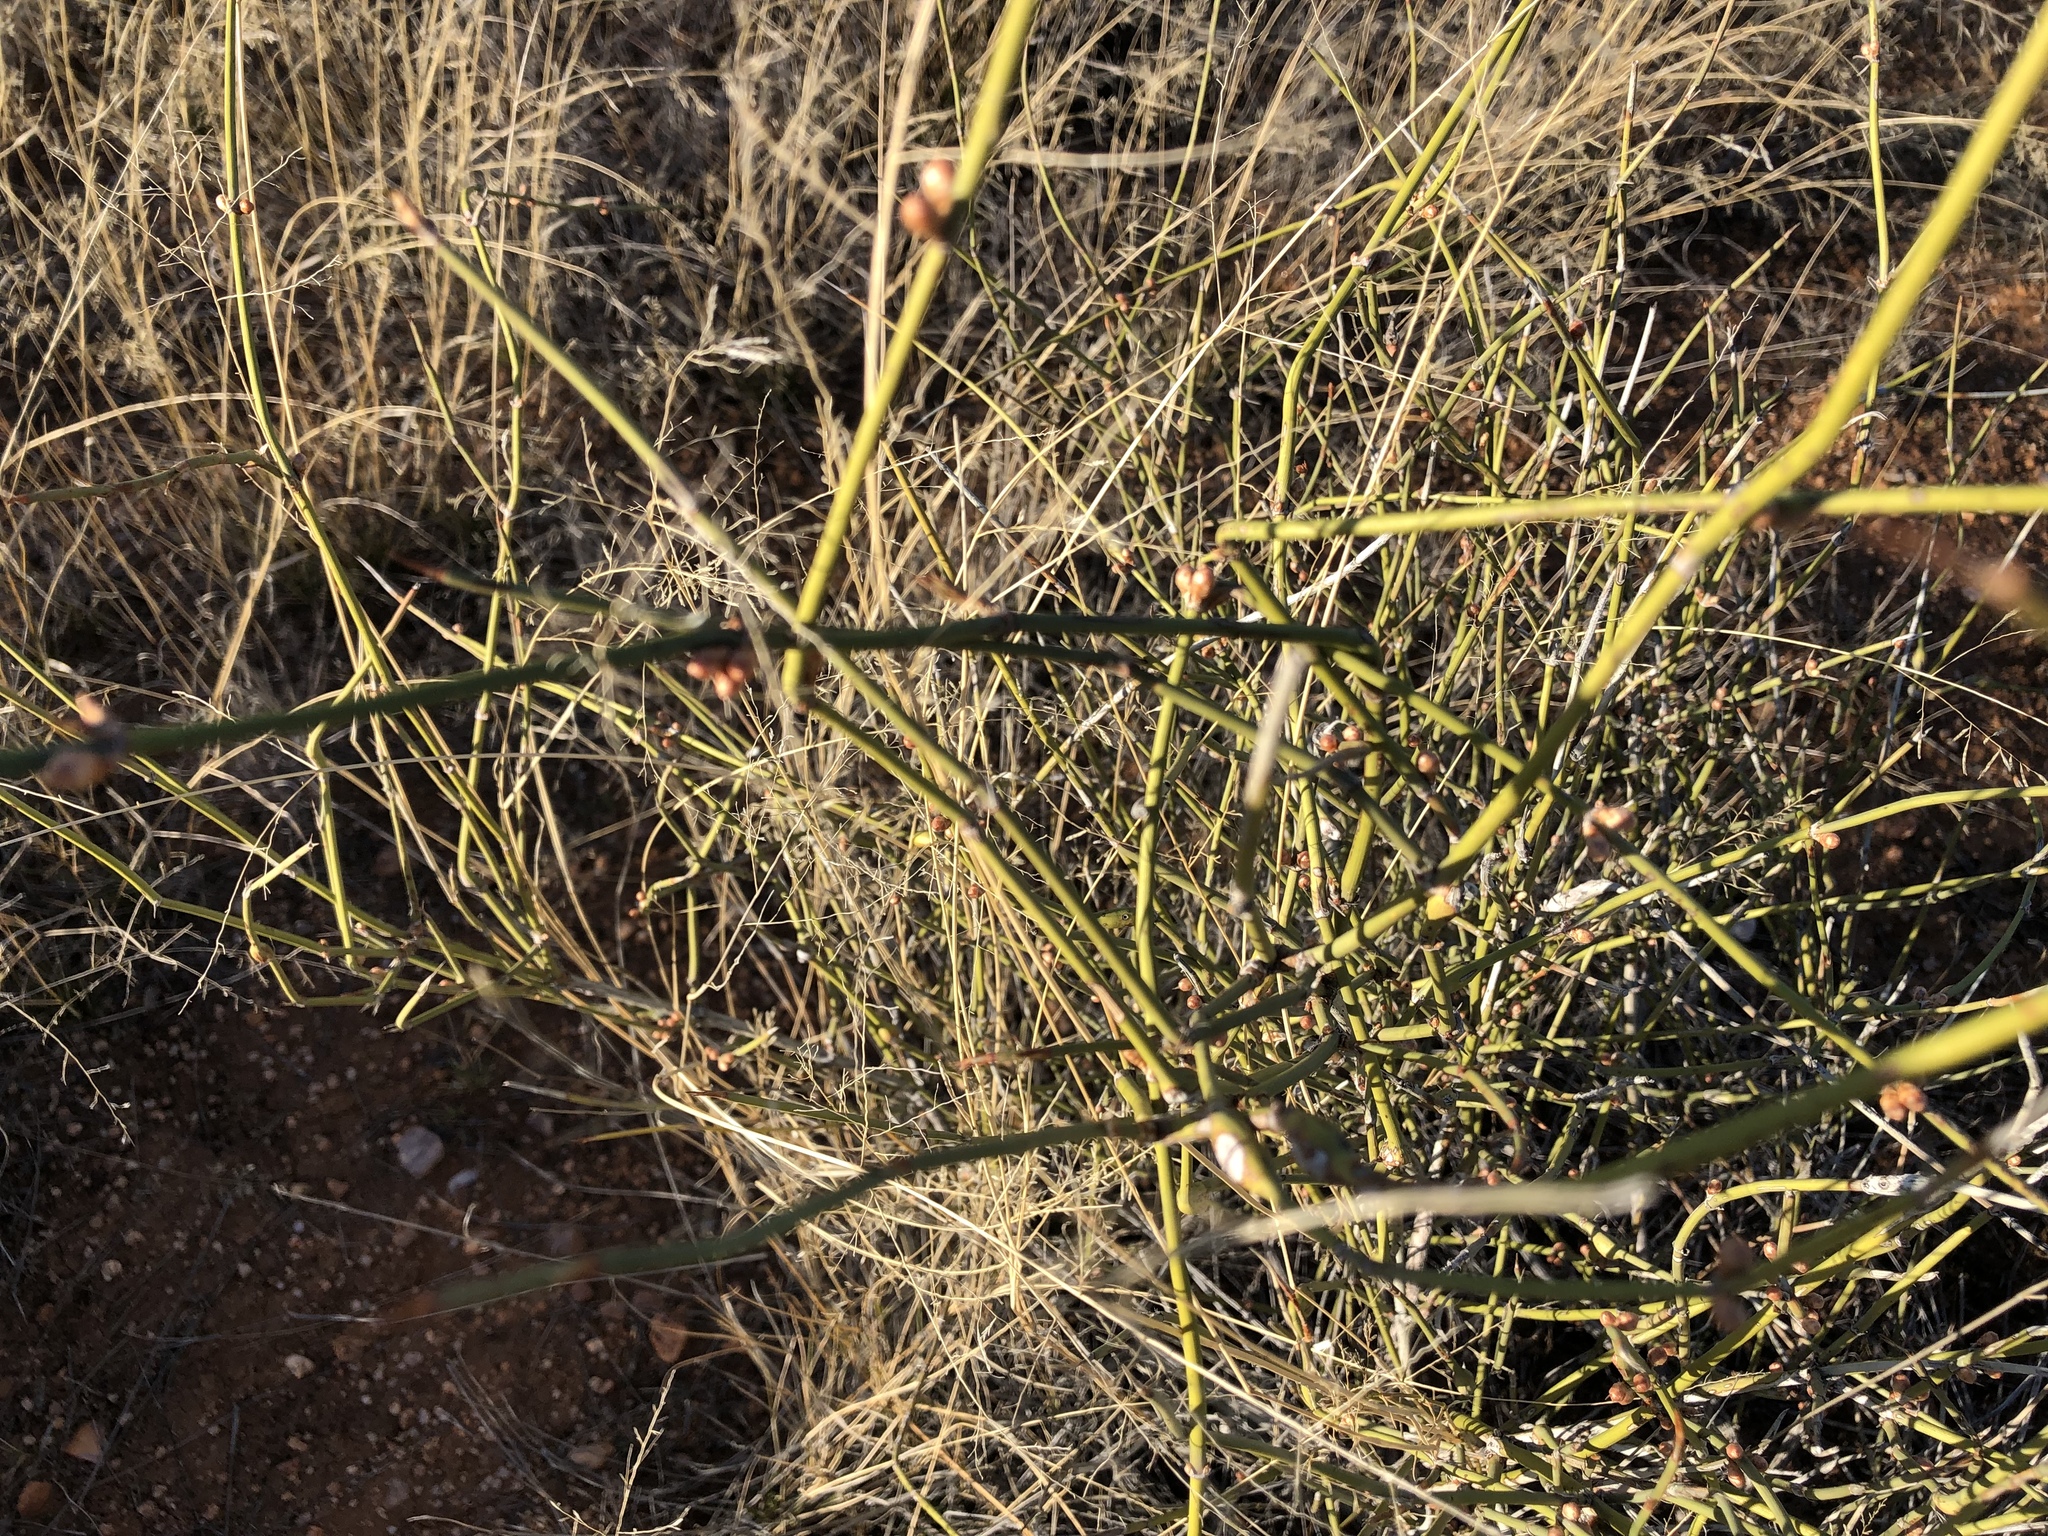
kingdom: Plantae
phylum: Tracheophyta
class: Gnetopsida
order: Ephedrales
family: Ephedraceae
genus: Ephedra
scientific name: Ephedra trifurca
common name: Mexican-tea
